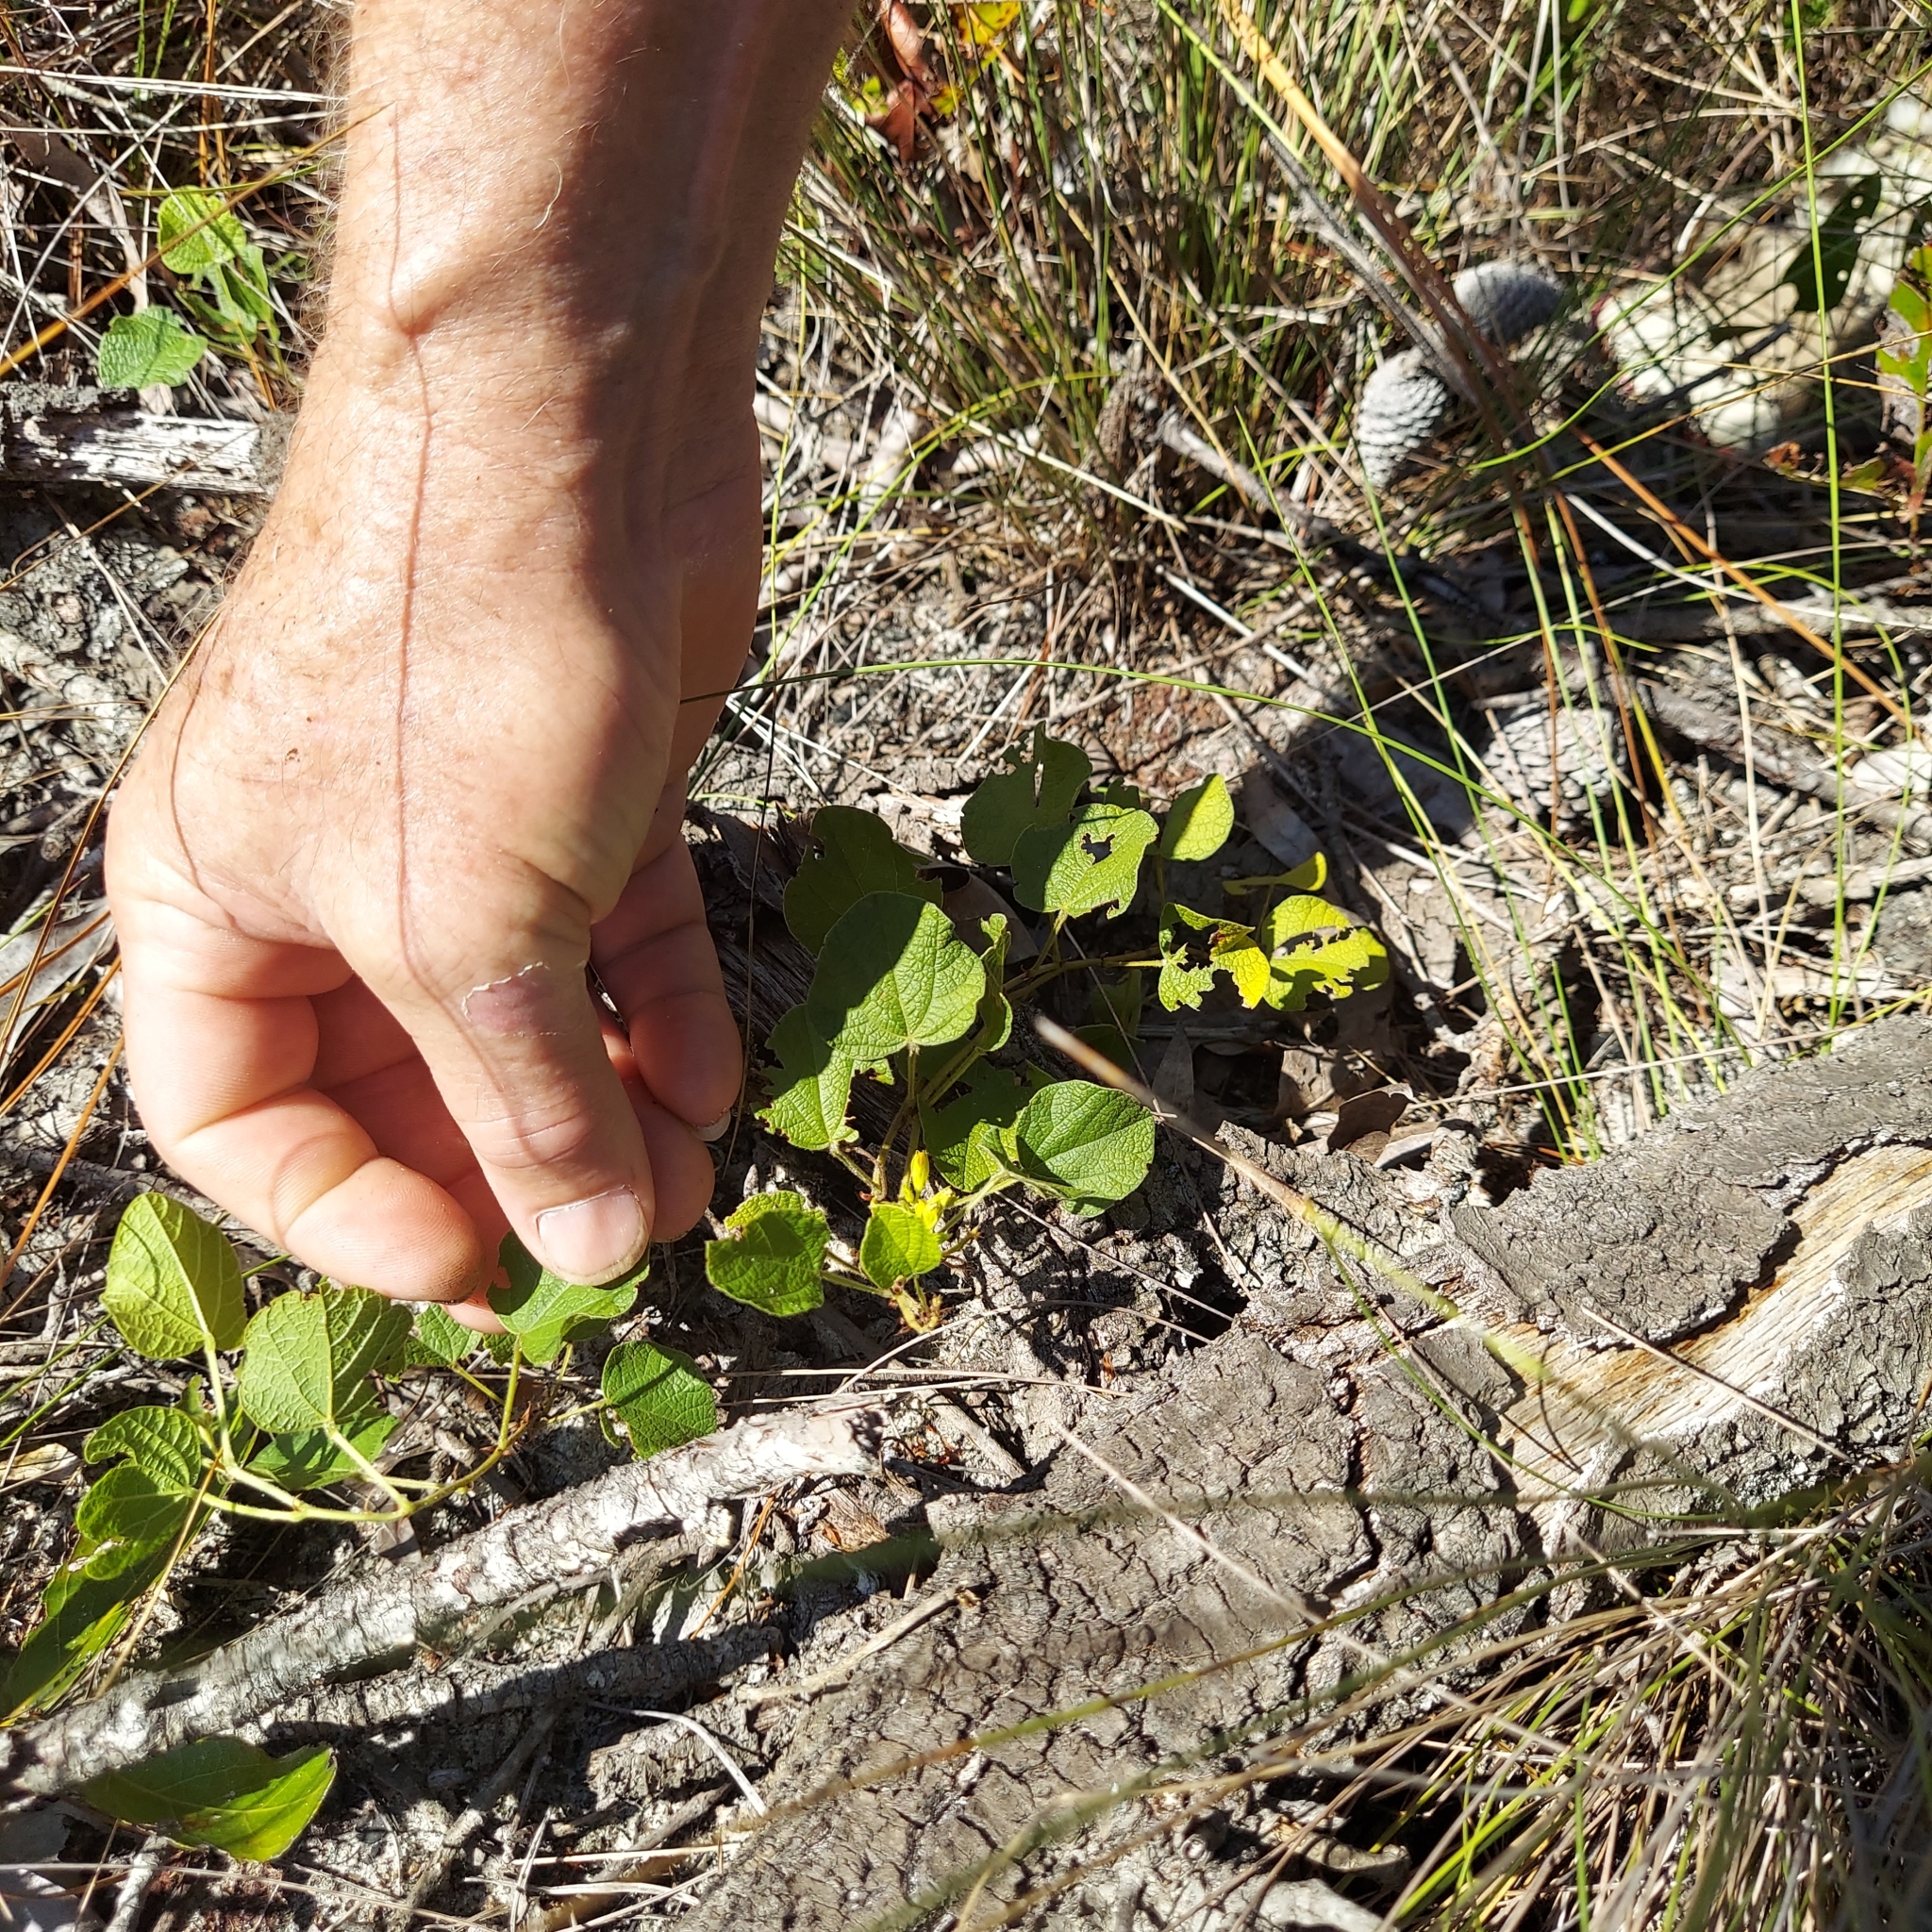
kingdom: Plantae
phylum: Tracheophyta
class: Magnoliopsida
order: Fabales
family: Fabaceae
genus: Rhynchosia
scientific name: Rhynchosia michauxii
